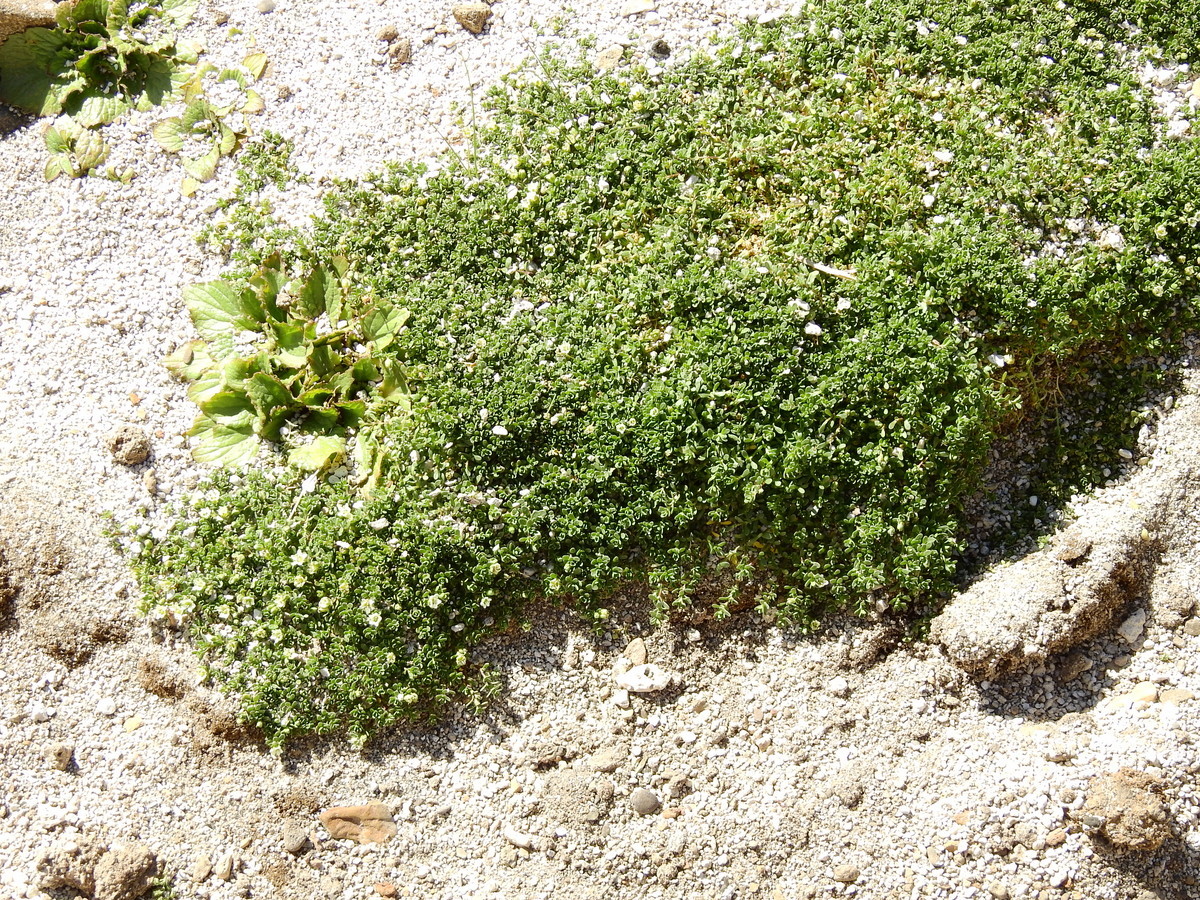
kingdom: Plantae
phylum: Tracheophyta
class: Magnoliopsida
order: Caryophyllales
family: Caryophyllaceae
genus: Arenaria
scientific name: Arenaria serpens
